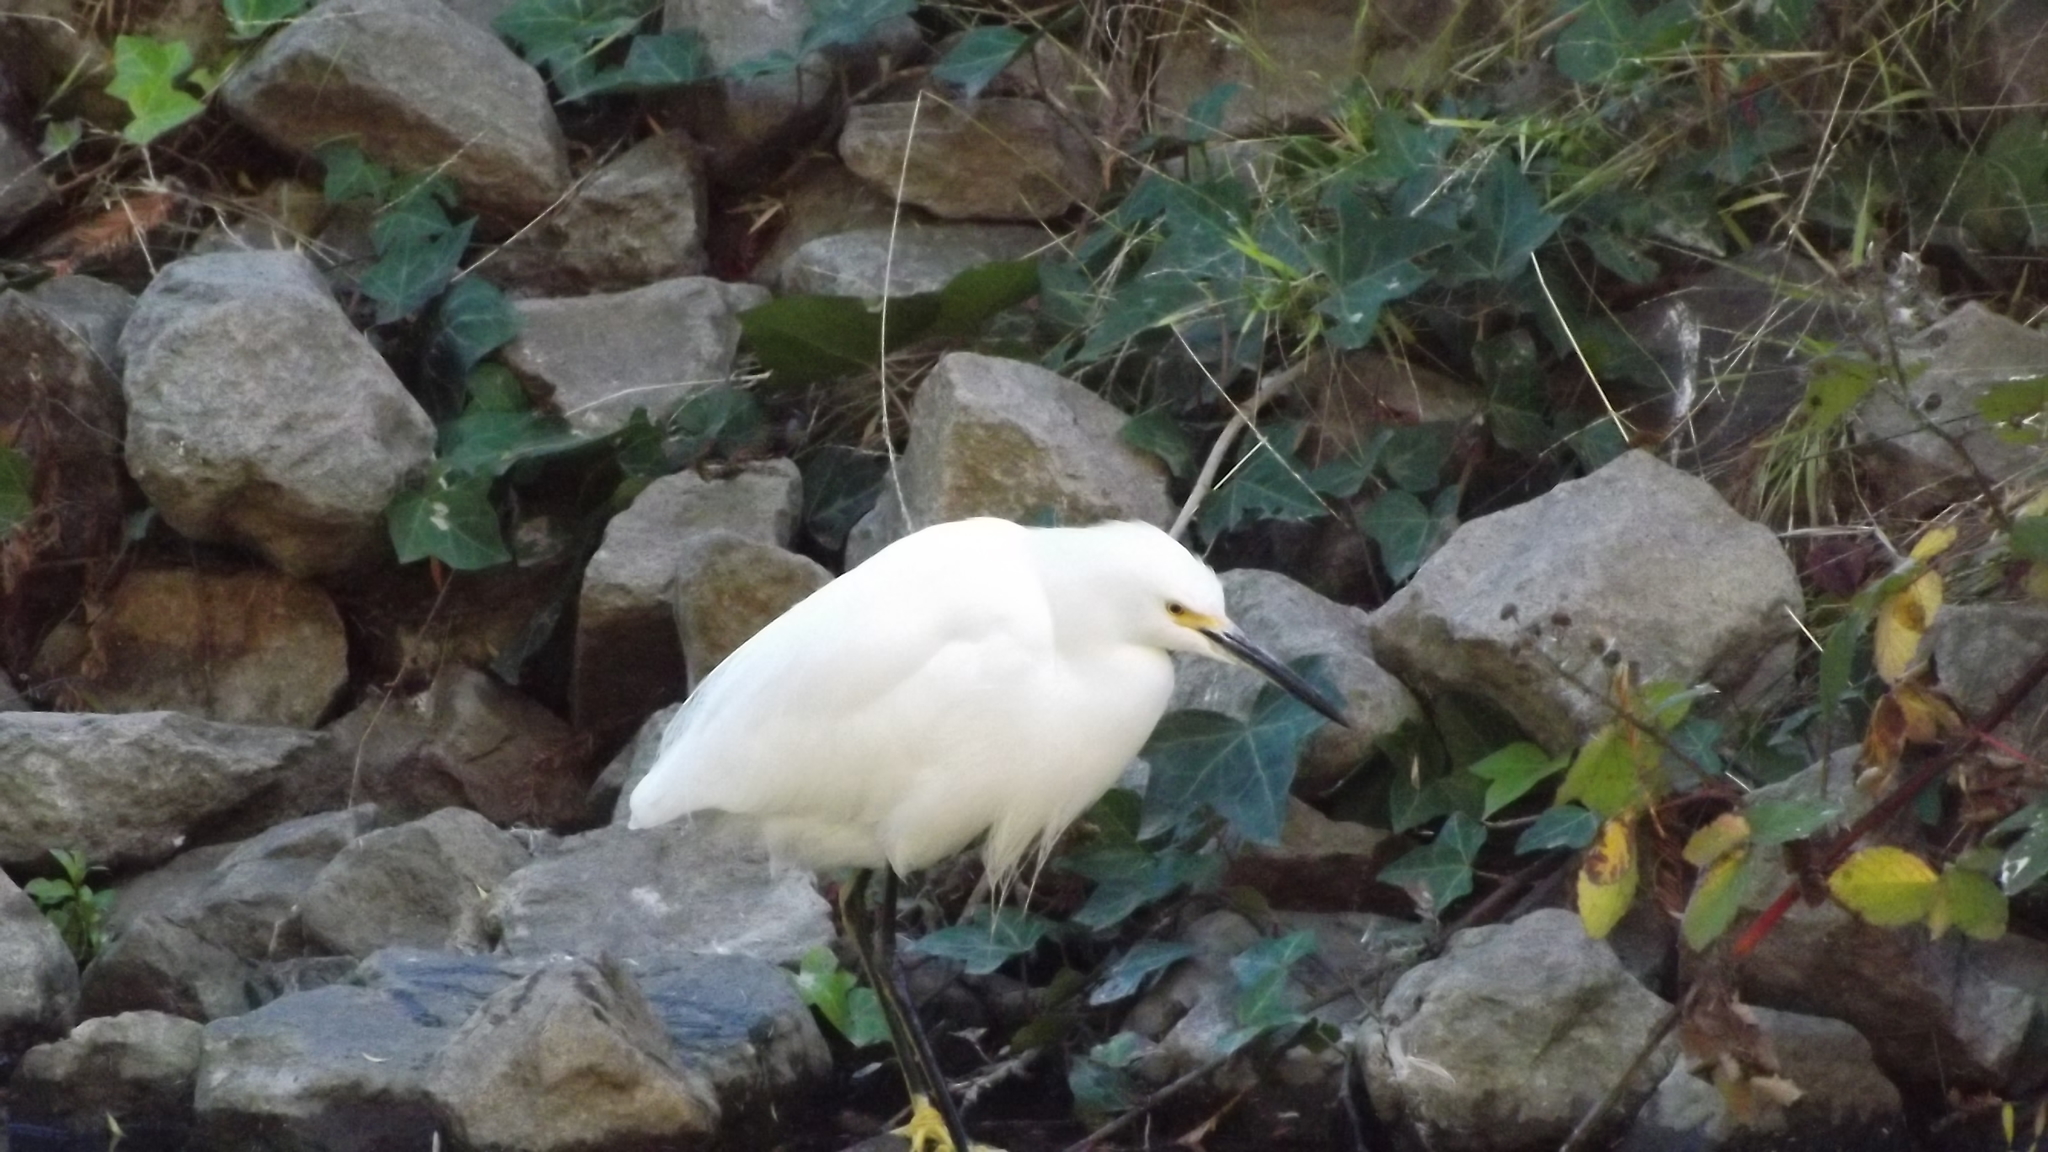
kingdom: Animalia
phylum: Chordata
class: Aves
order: Pelecaniformes
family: Ardeidae
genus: Egretta
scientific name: Egretta thula
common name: Snowy egret
